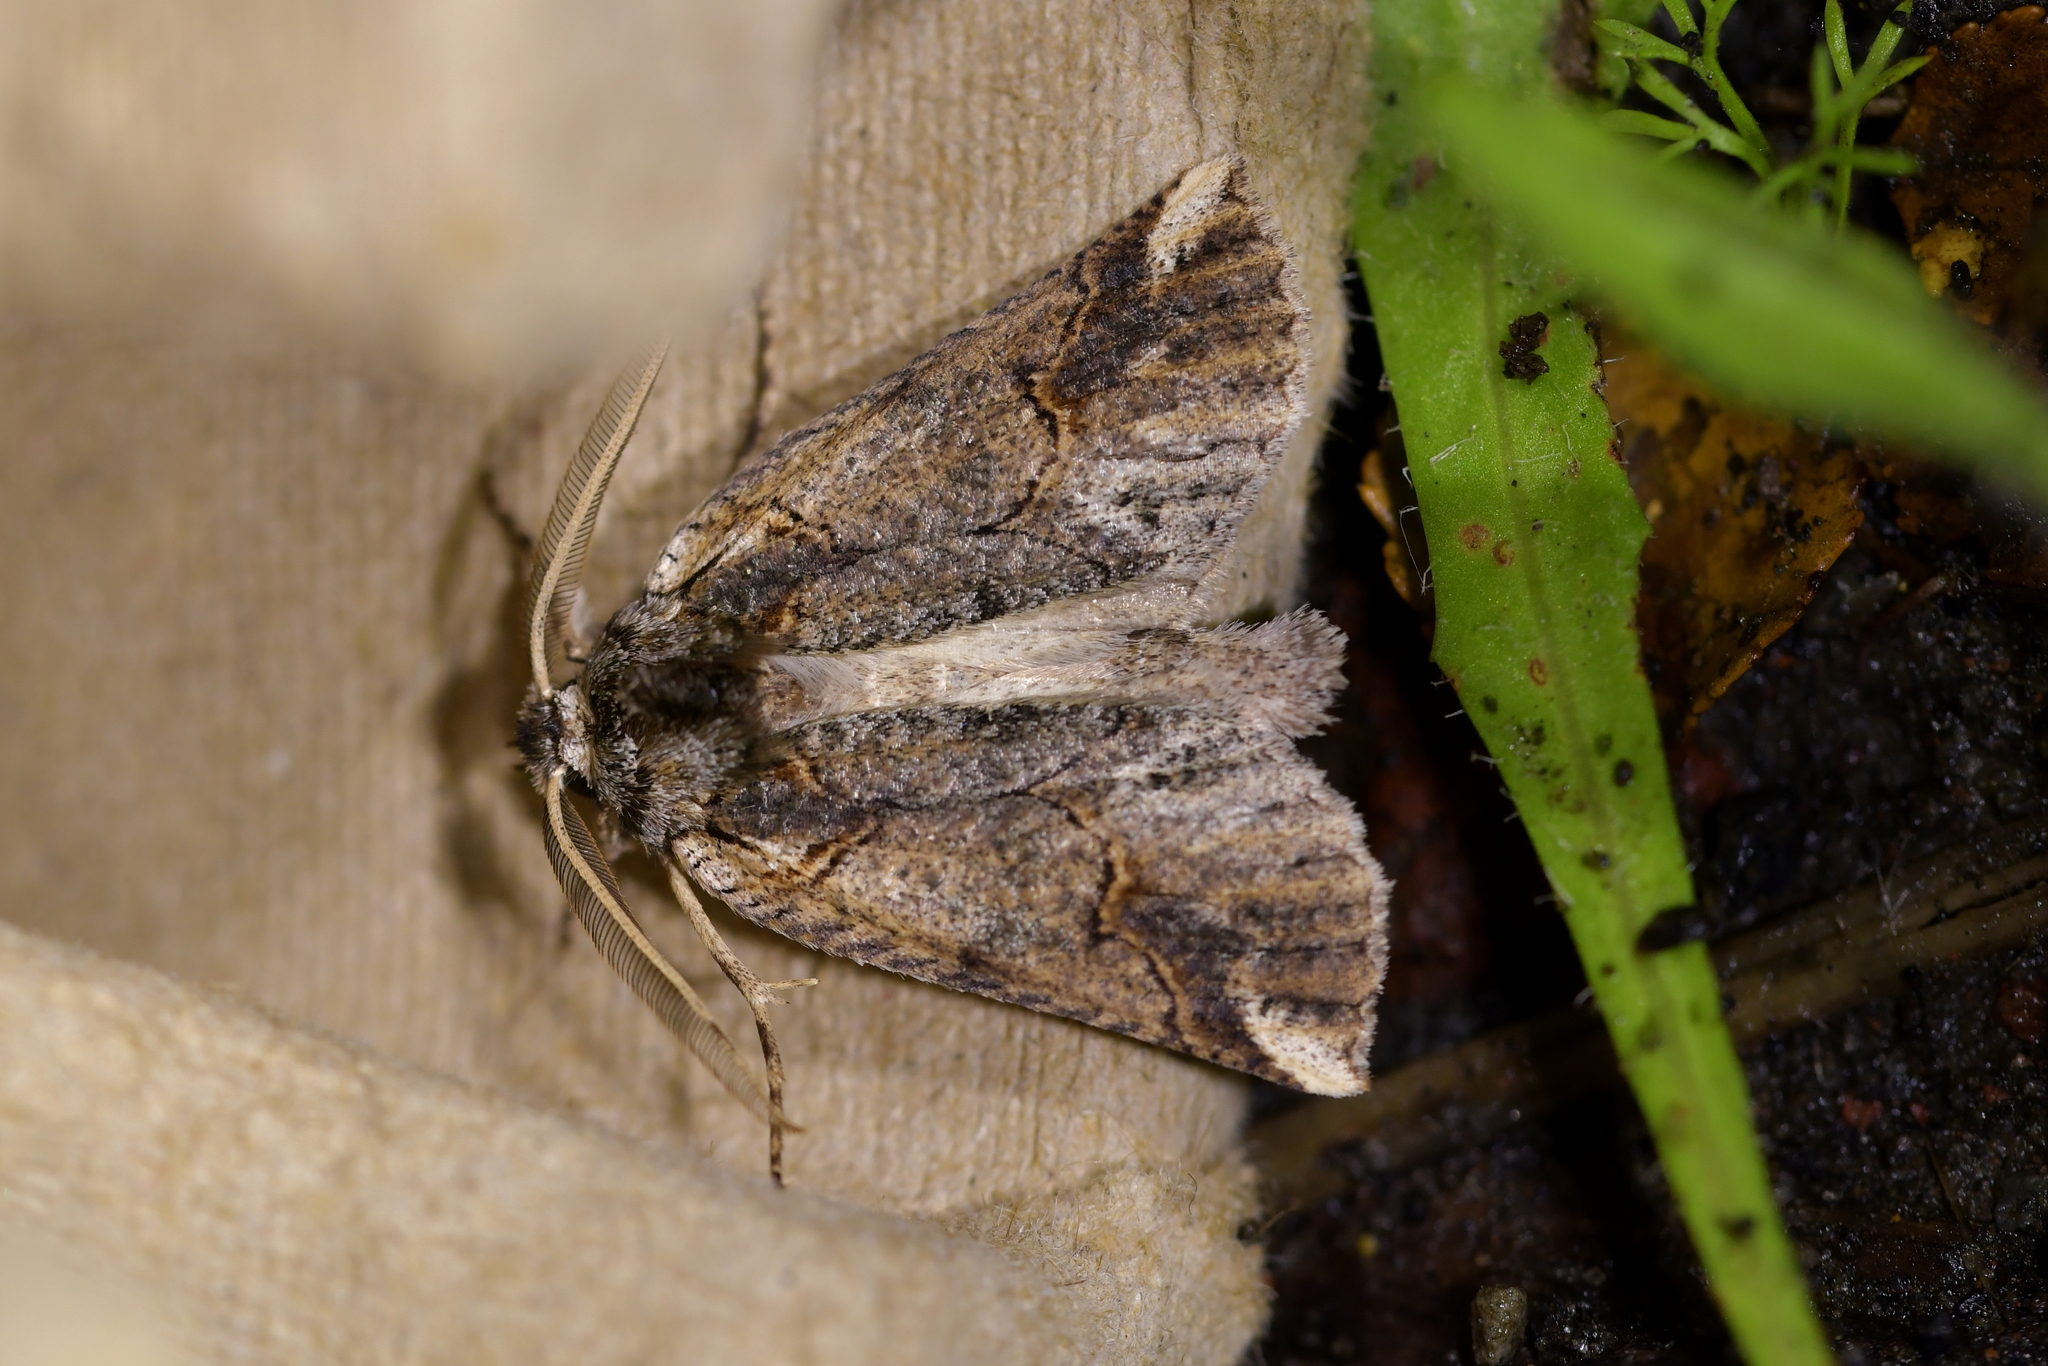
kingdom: Animalia
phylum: Arthropoda
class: Insecta
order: Lepidoptera
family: Geometridae
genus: Declana
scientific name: Declana
